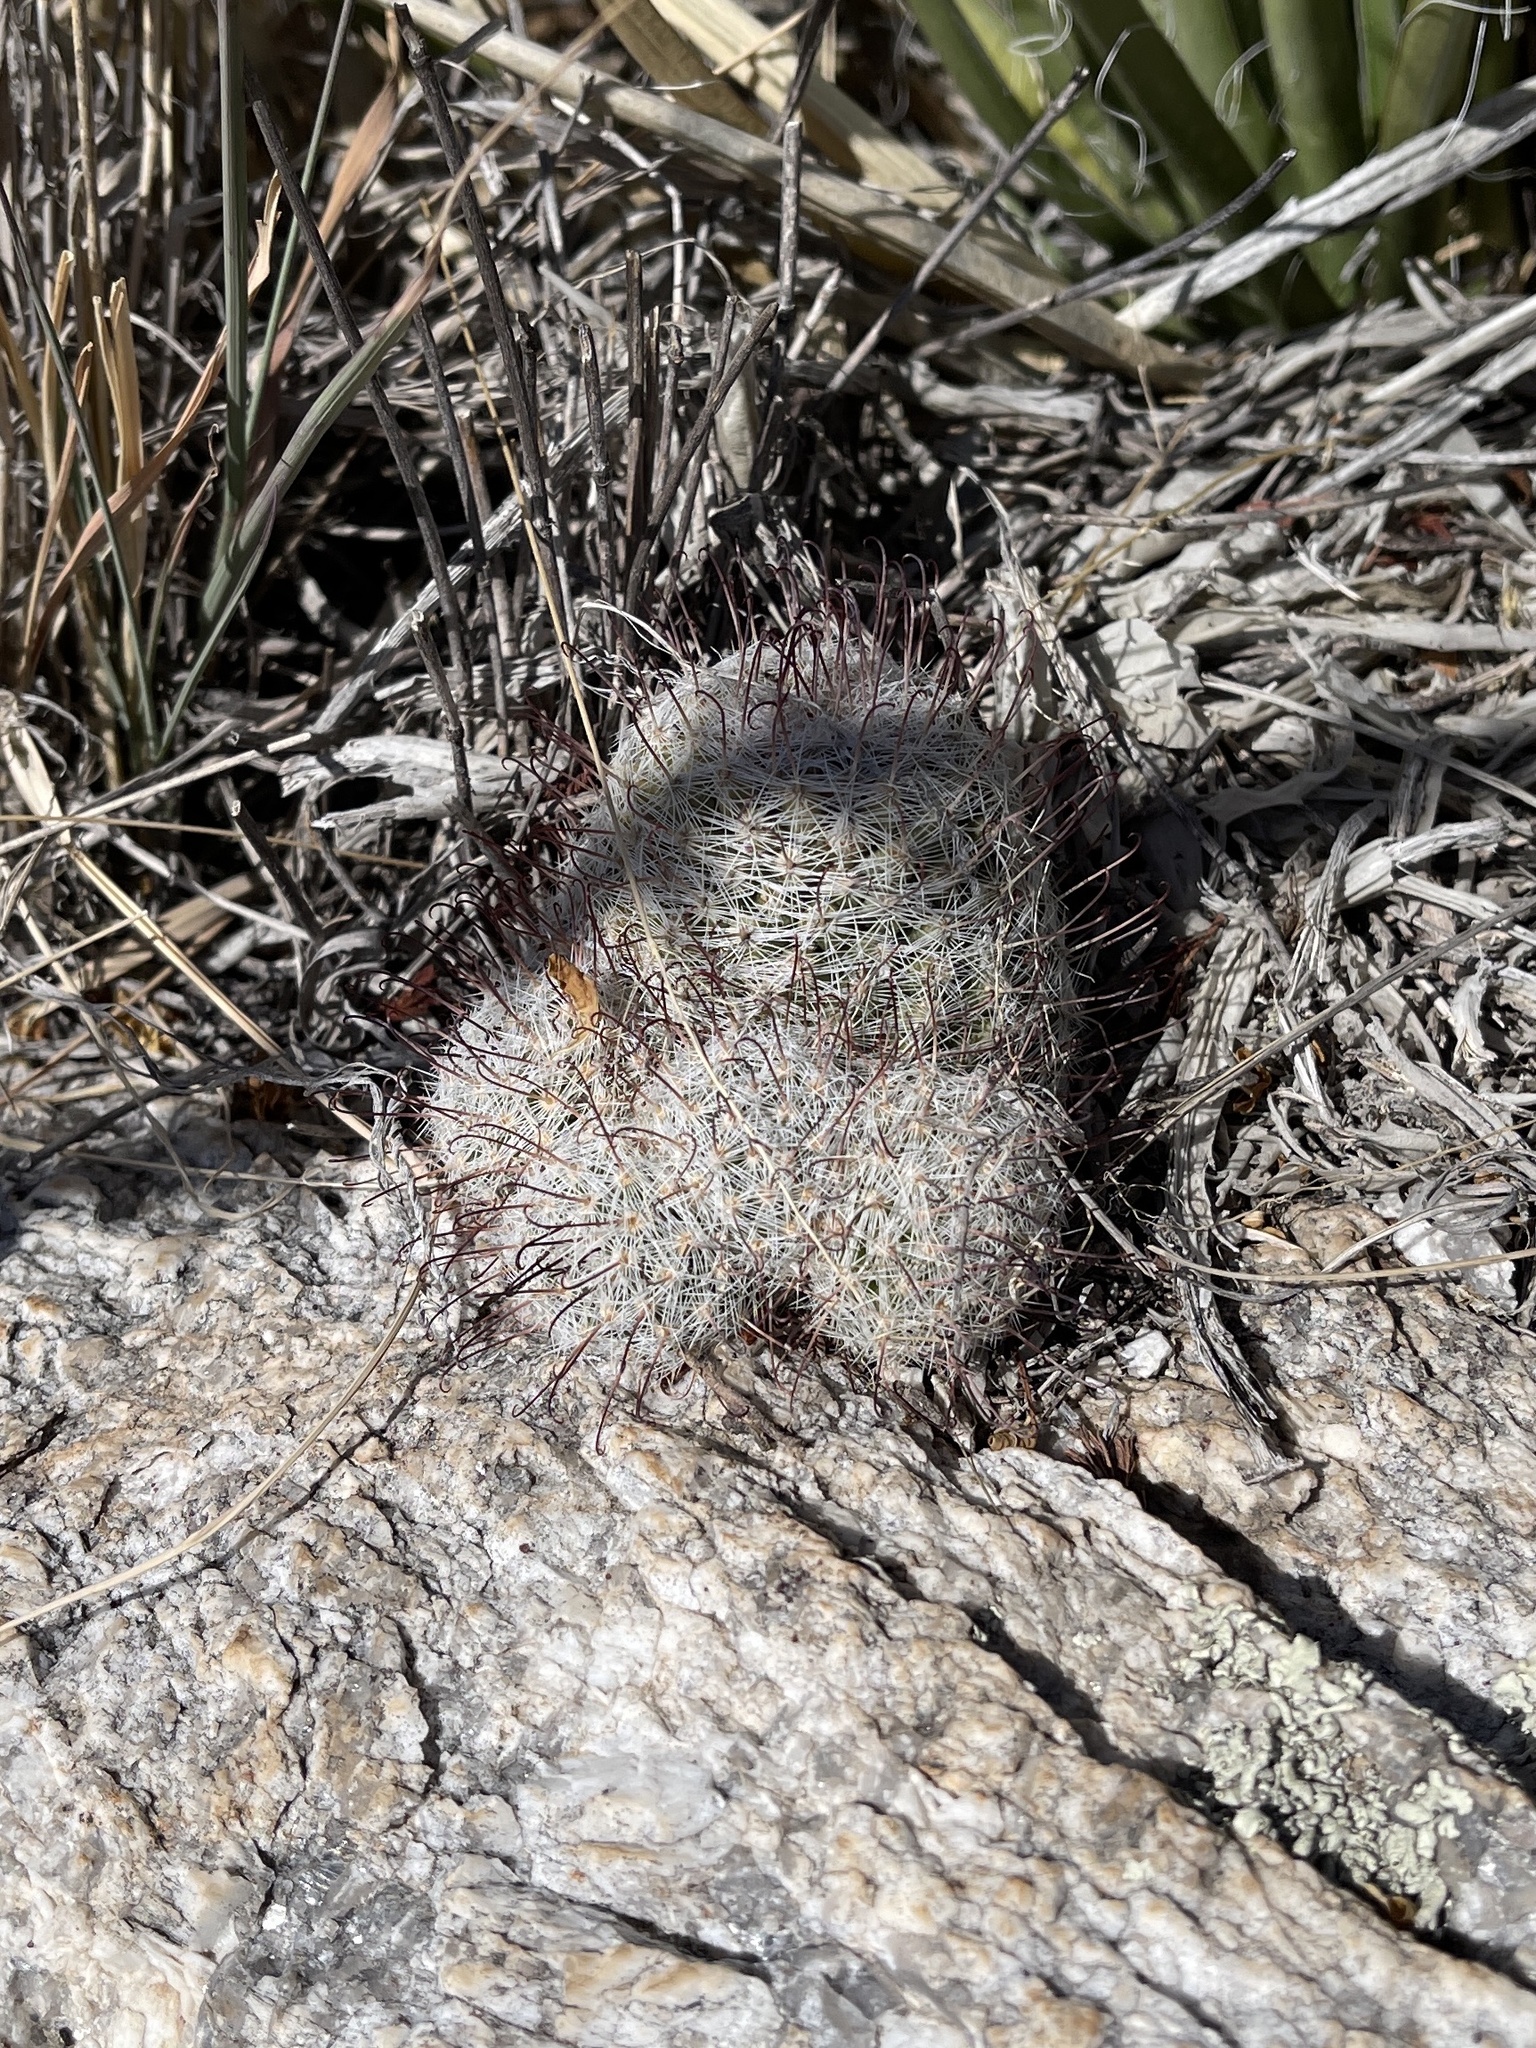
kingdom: Plantae
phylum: Tracheophyta
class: Magnoliopsida
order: Caryophyllales
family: Cactaceae
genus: Cochemiea
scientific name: Cochemiea grahamii
